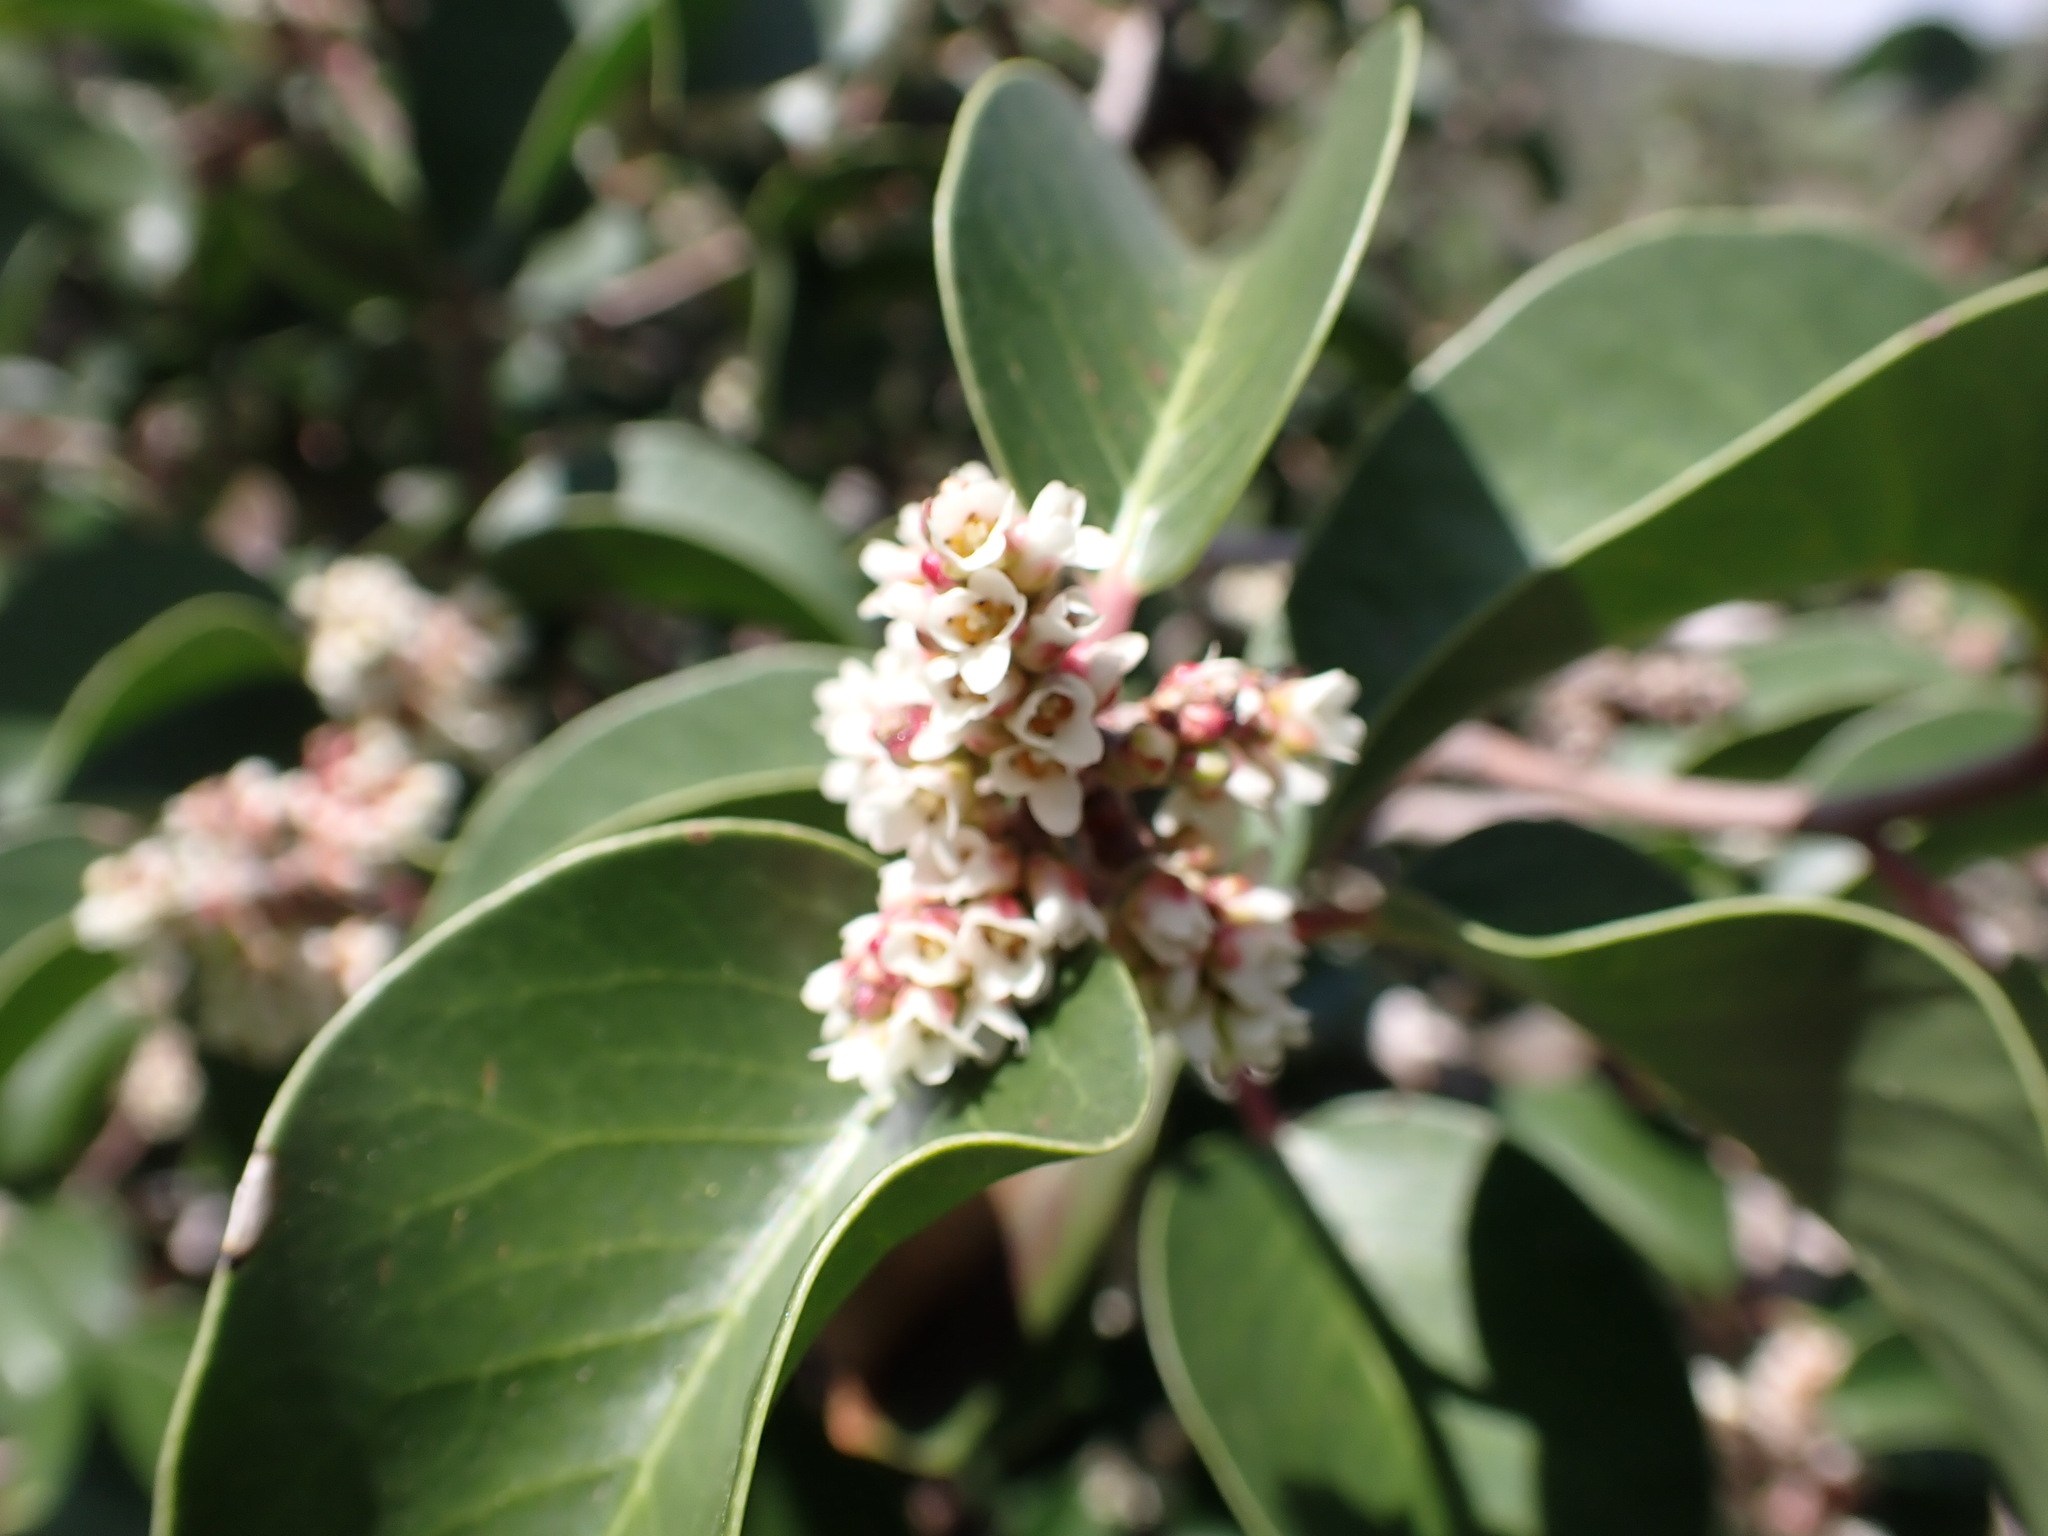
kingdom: Plantae
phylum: Tracheophyta
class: Magnoliopsida
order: Sapindales
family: Anacardiaceae
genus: Rhus
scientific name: Rhus ovata
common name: Sugar sumac
